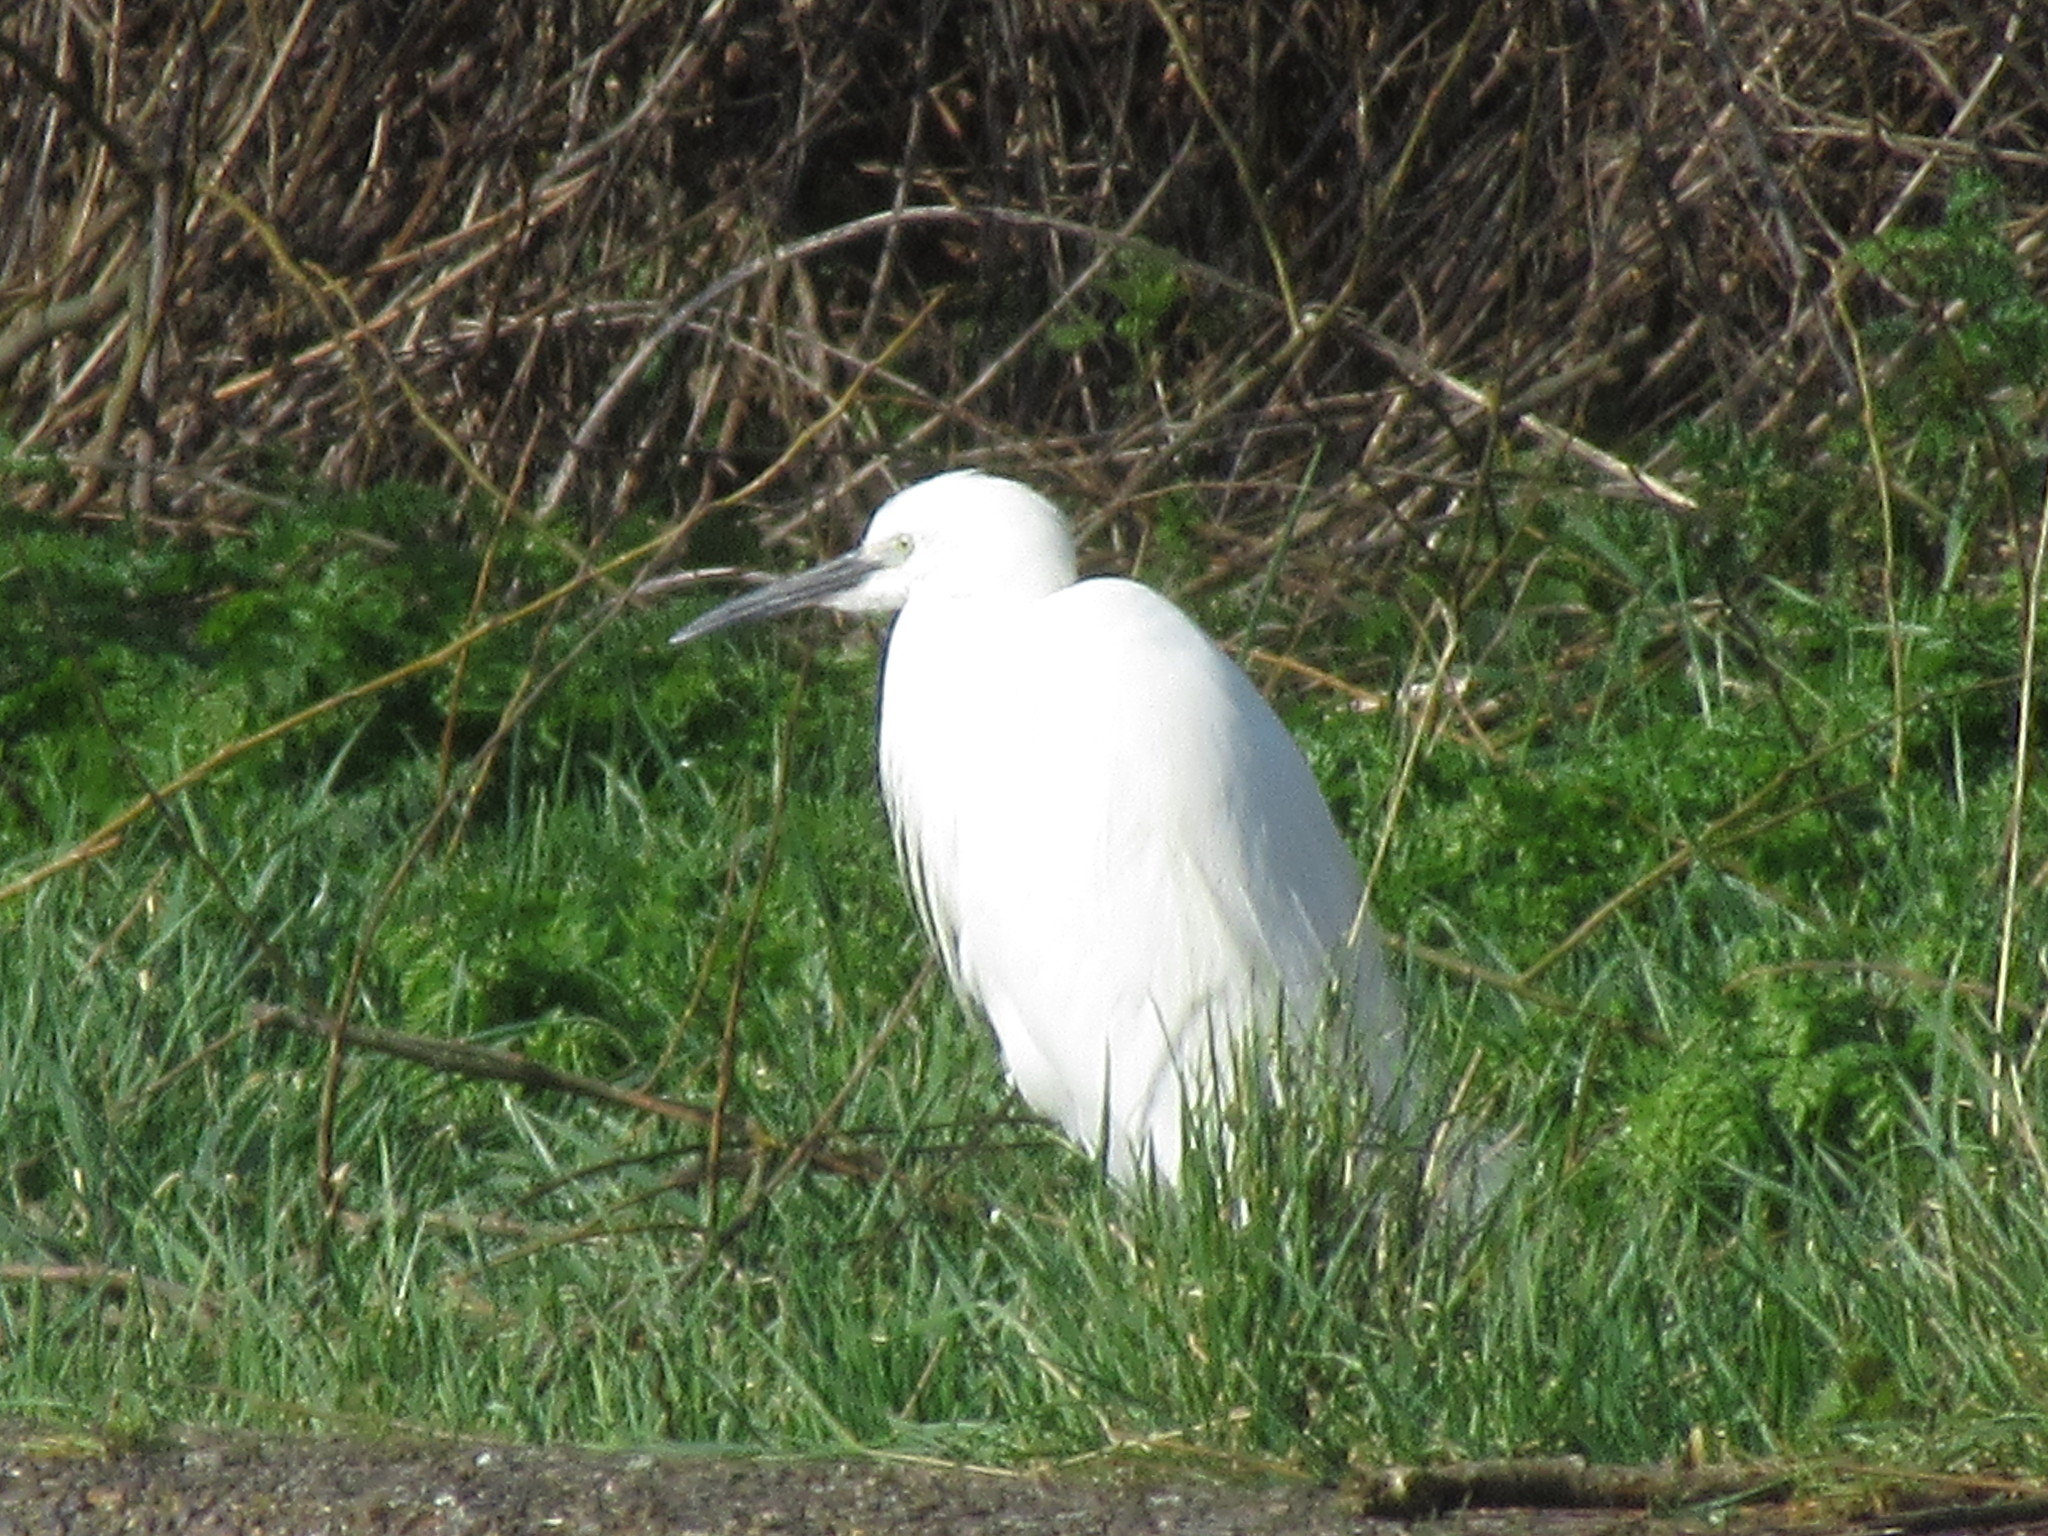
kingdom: Animalia
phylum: Chordata
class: Aves
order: Pelecaniformes
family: Ardeidae
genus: Egretta
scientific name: Egretta garzetta
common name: Little egret
